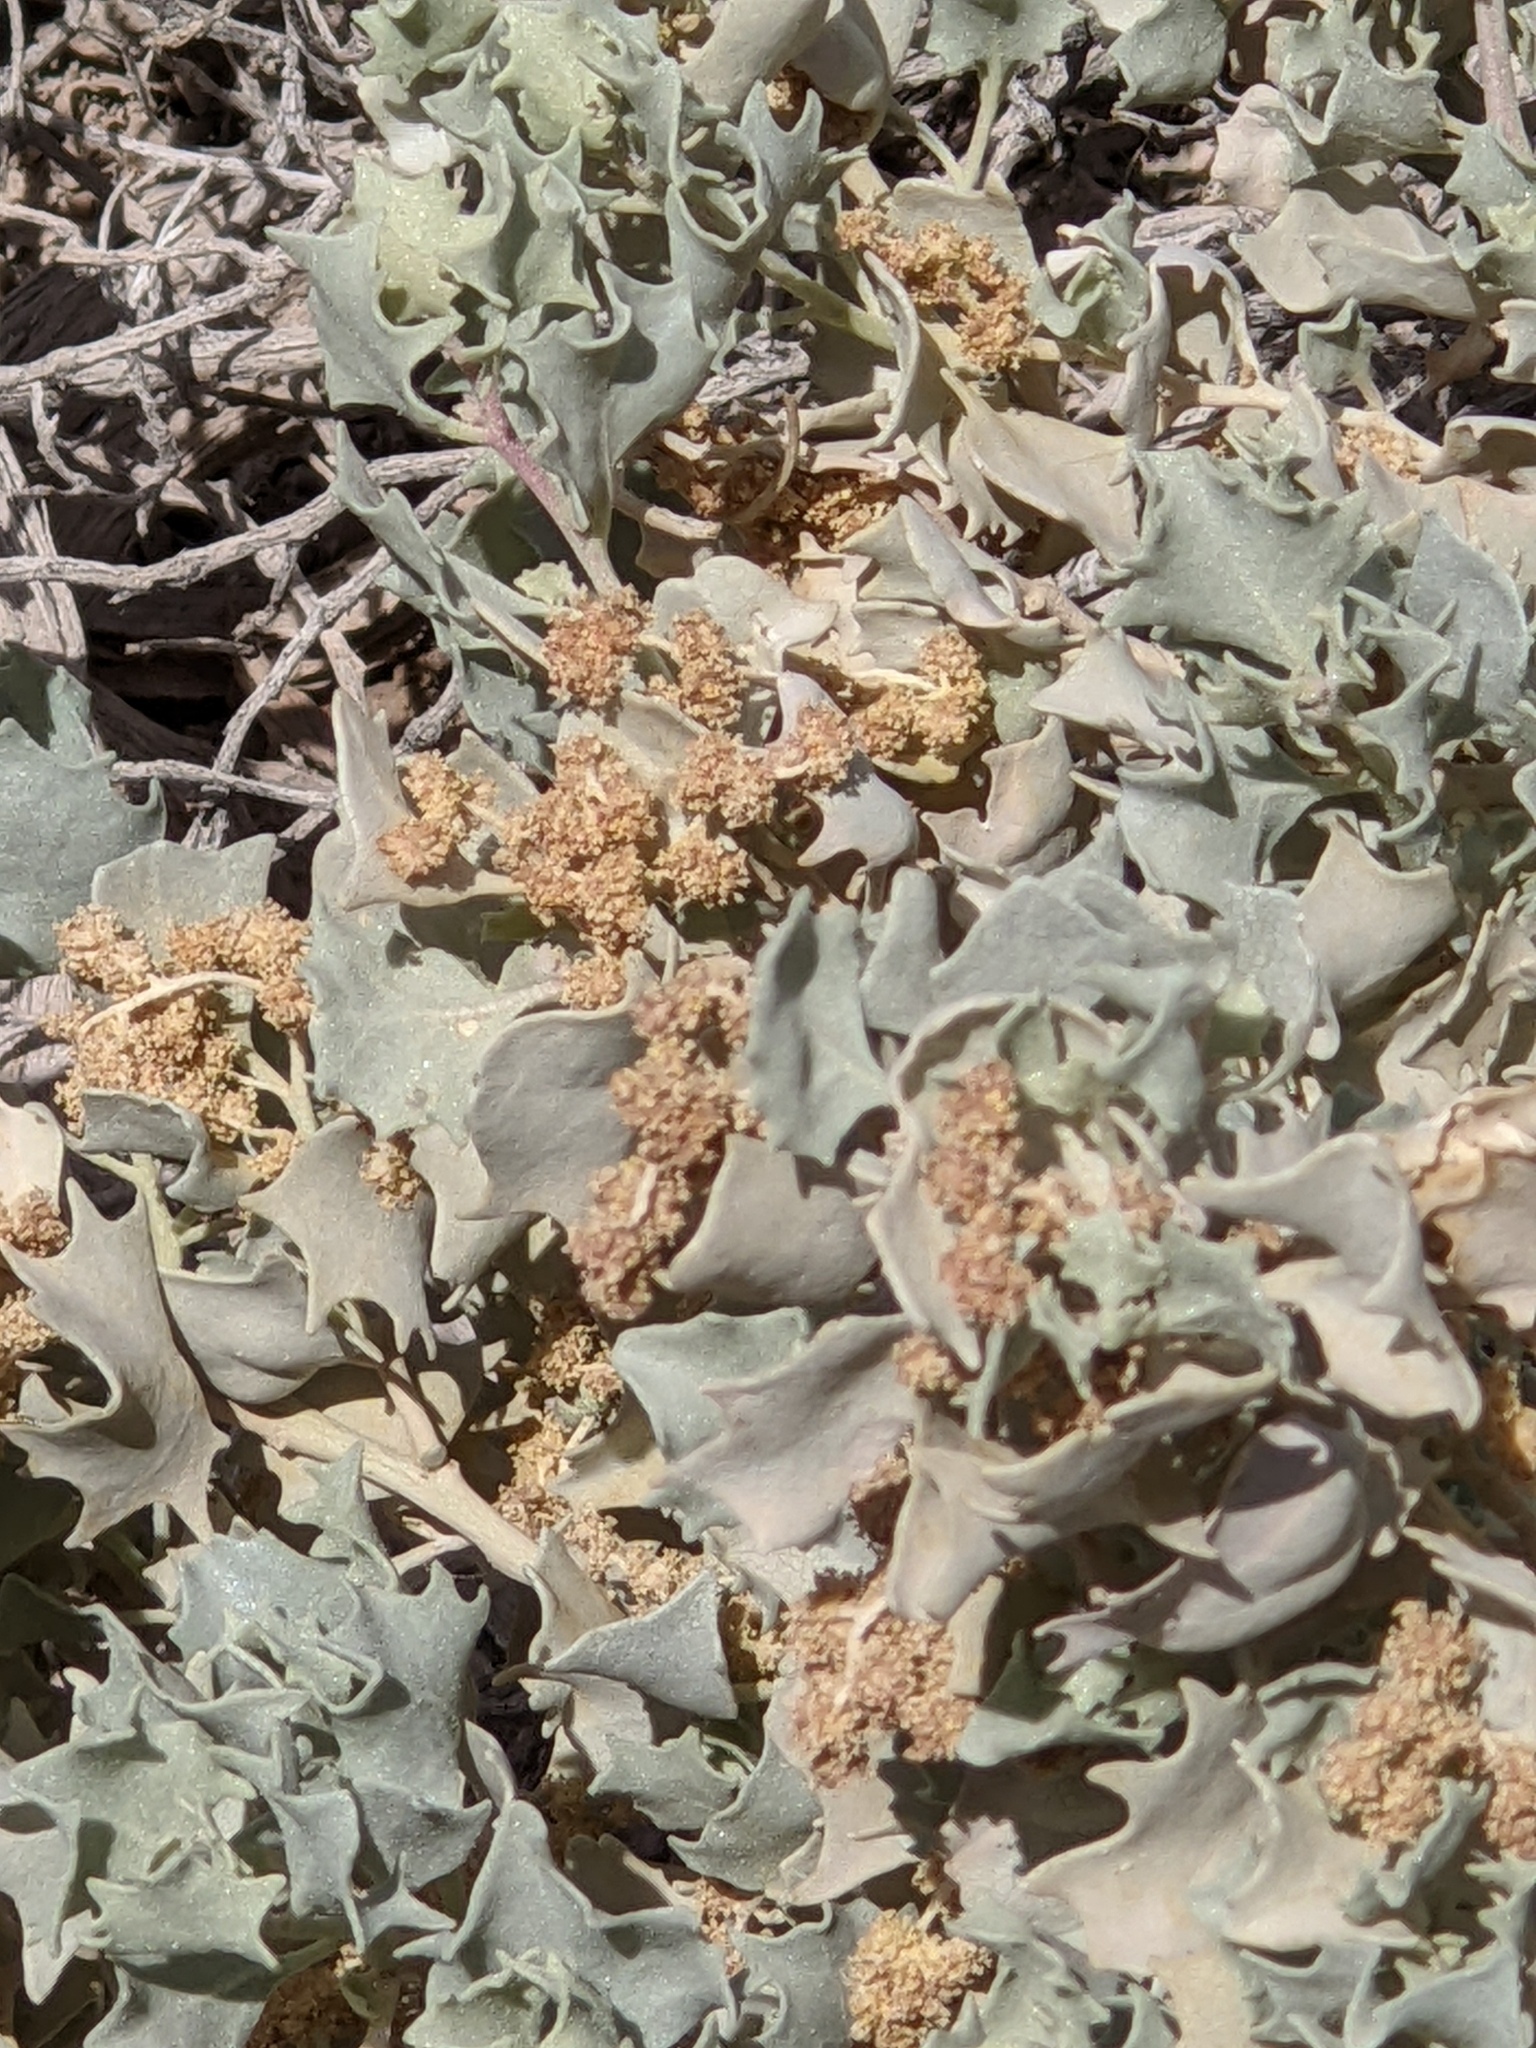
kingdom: Plantae
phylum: Tracheophyta
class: Magnoliopsida
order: Caryophyllales
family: Amaranthaceae
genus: Atriplex
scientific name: Atriplex hymenelytra
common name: Desert-holly
